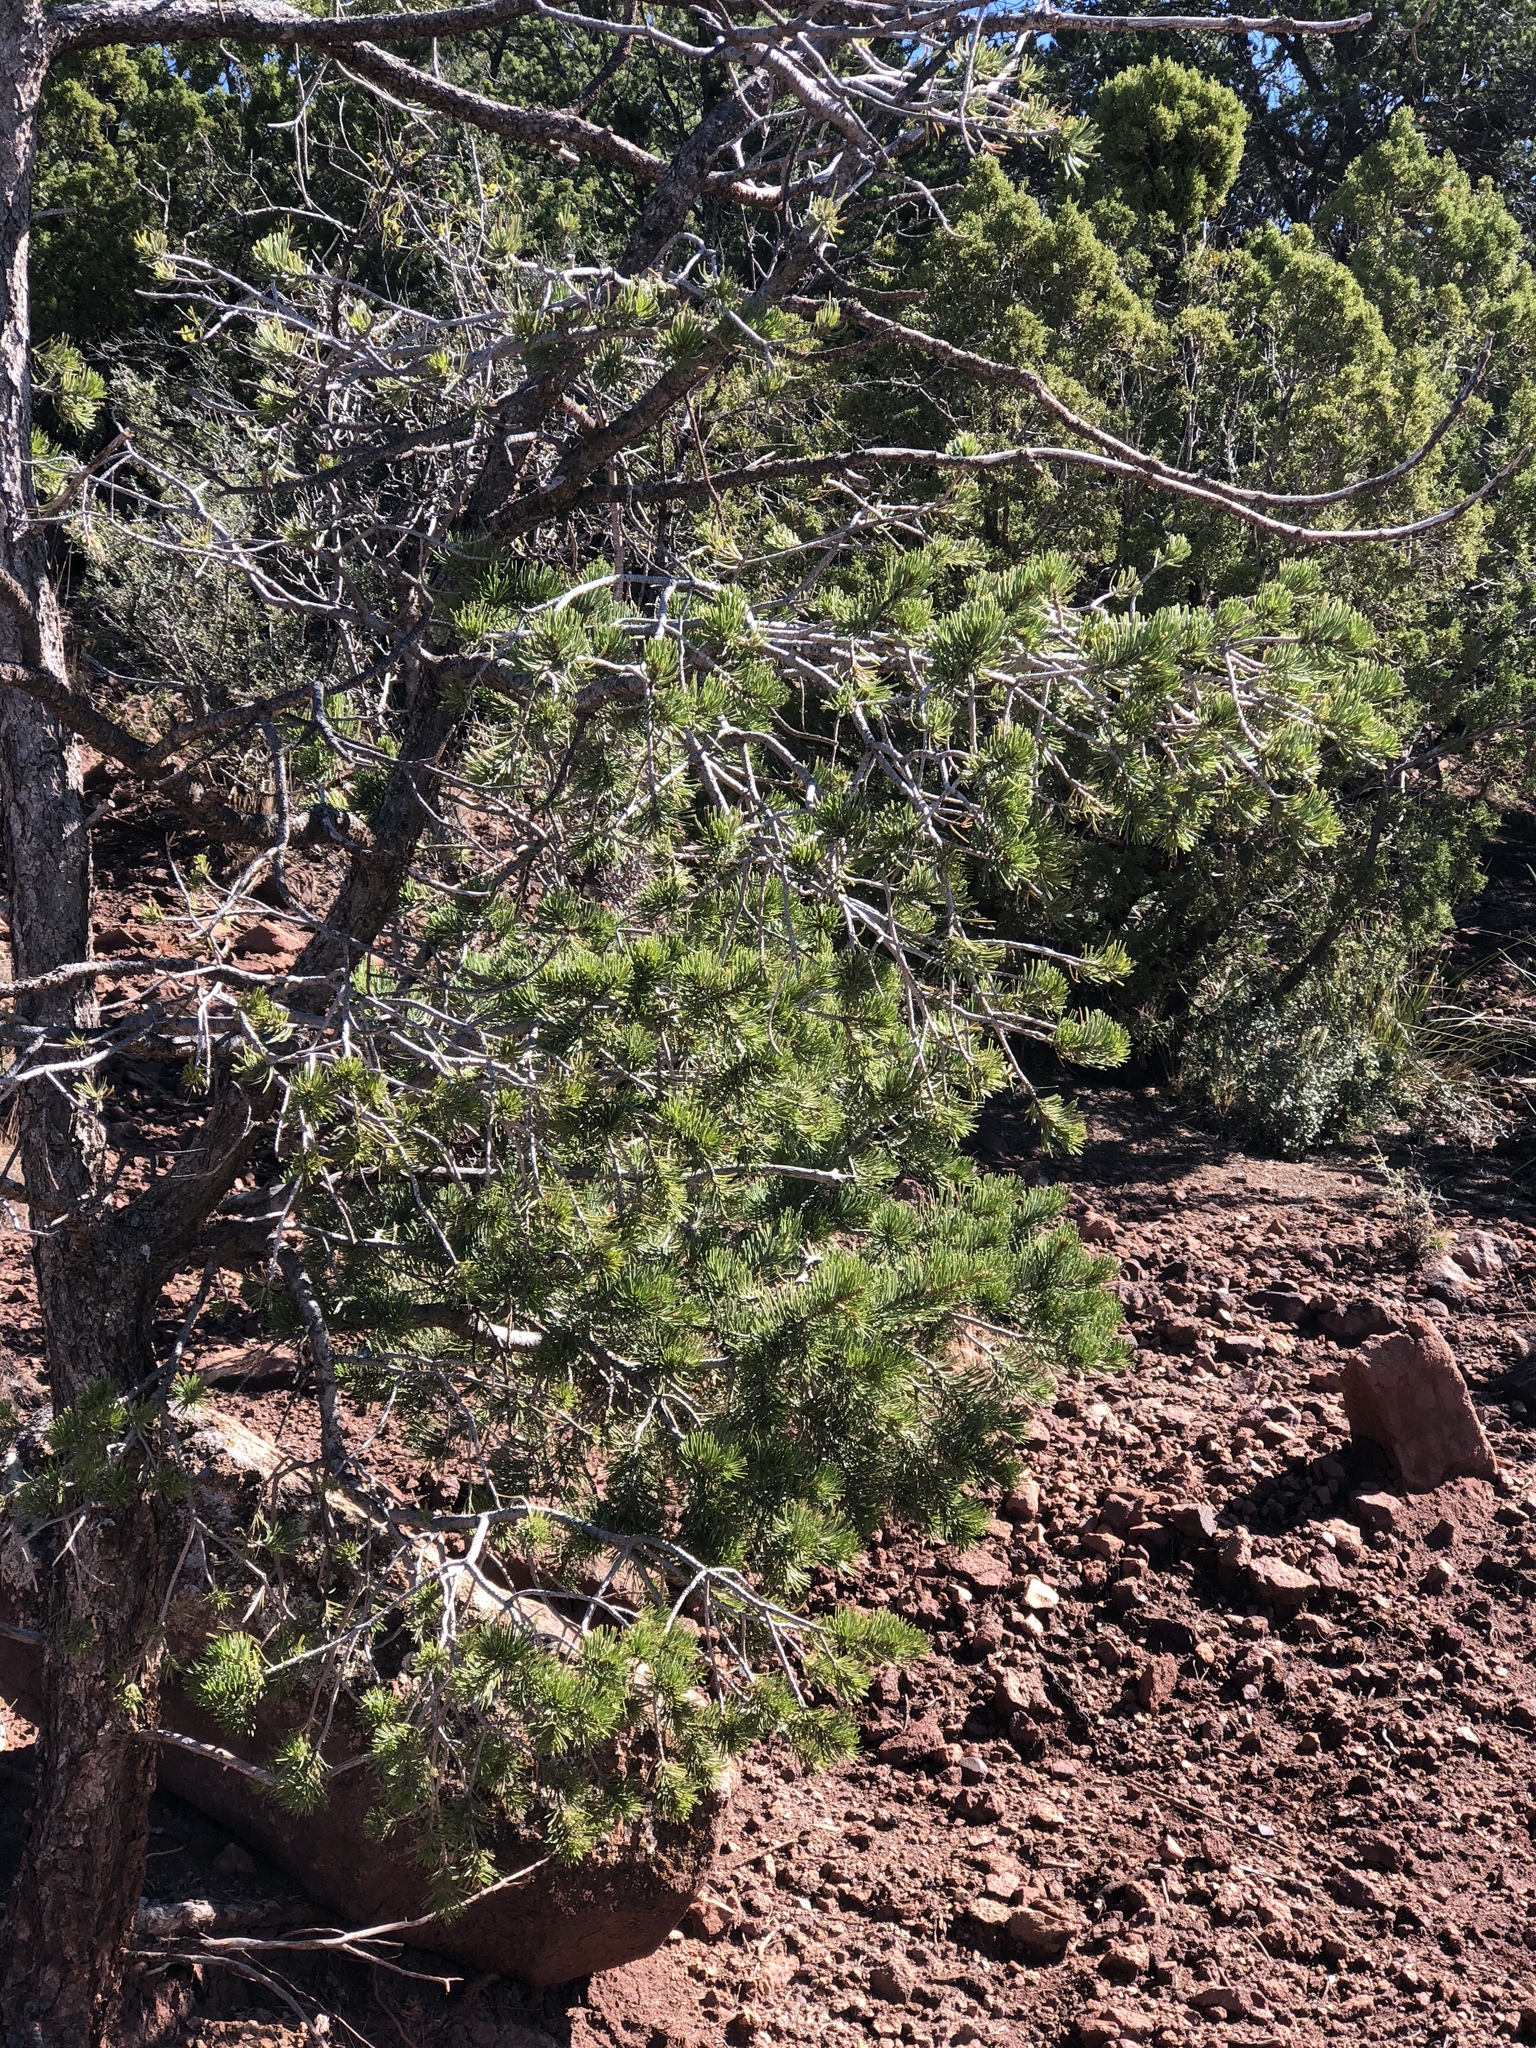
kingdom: Plantae
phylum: Tracheophyta
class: Pinopsida
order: Pinales
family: Pinaceae
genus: Pinus
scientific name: Pinus edulis
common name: Colorado pinyon
